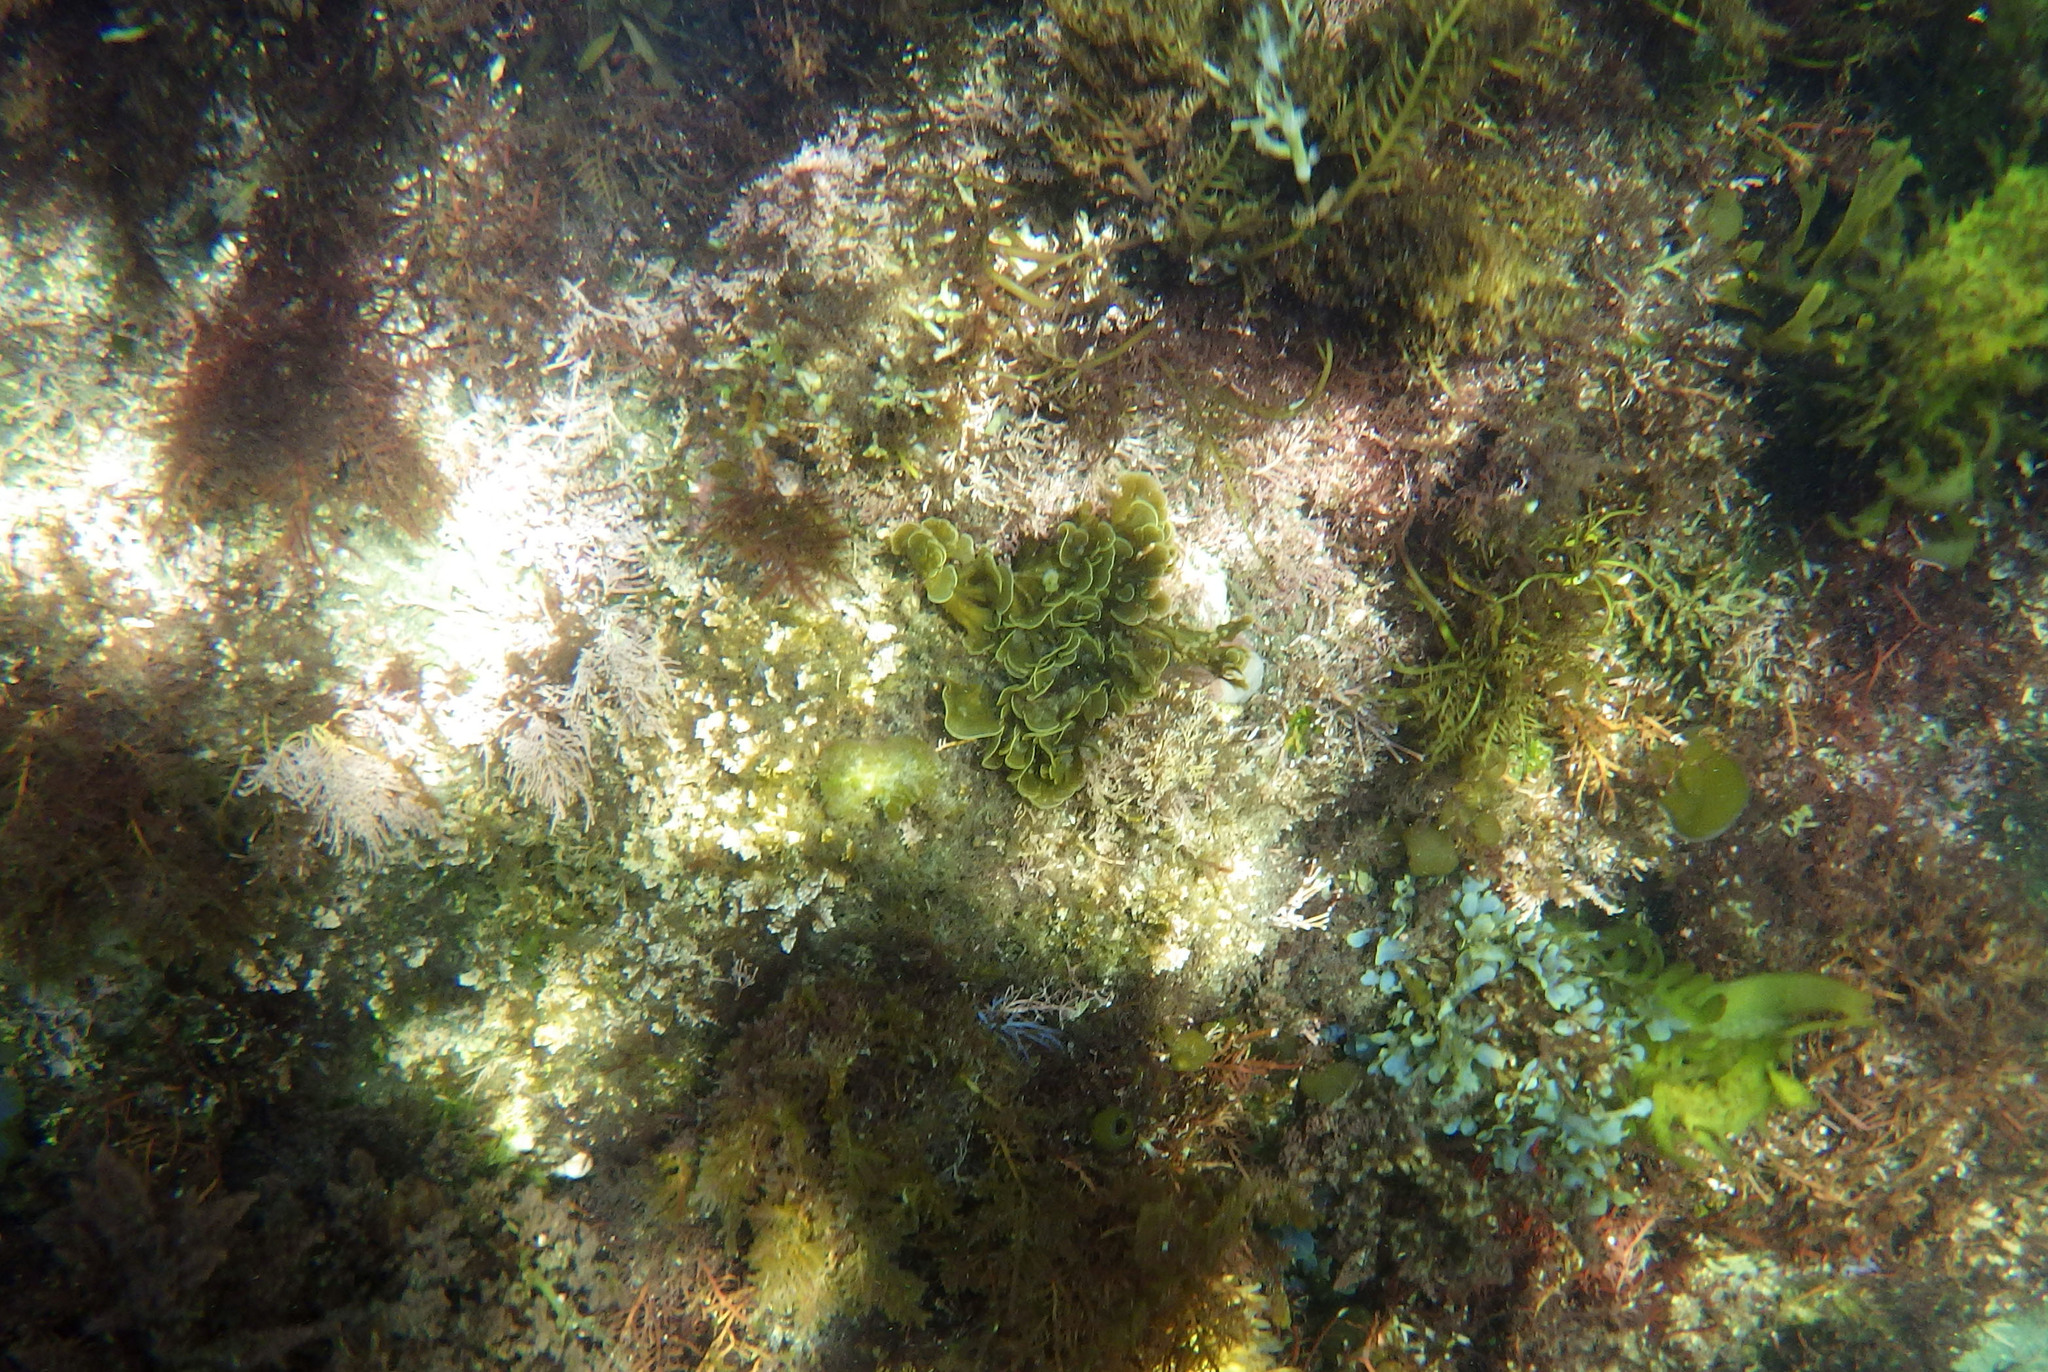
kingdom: Chromista
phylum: Ochrophyta
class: Phaeophyceae
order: Dictyotales
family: Dictyotaceae
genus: Zonaria
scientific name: Zonaria farlowii
